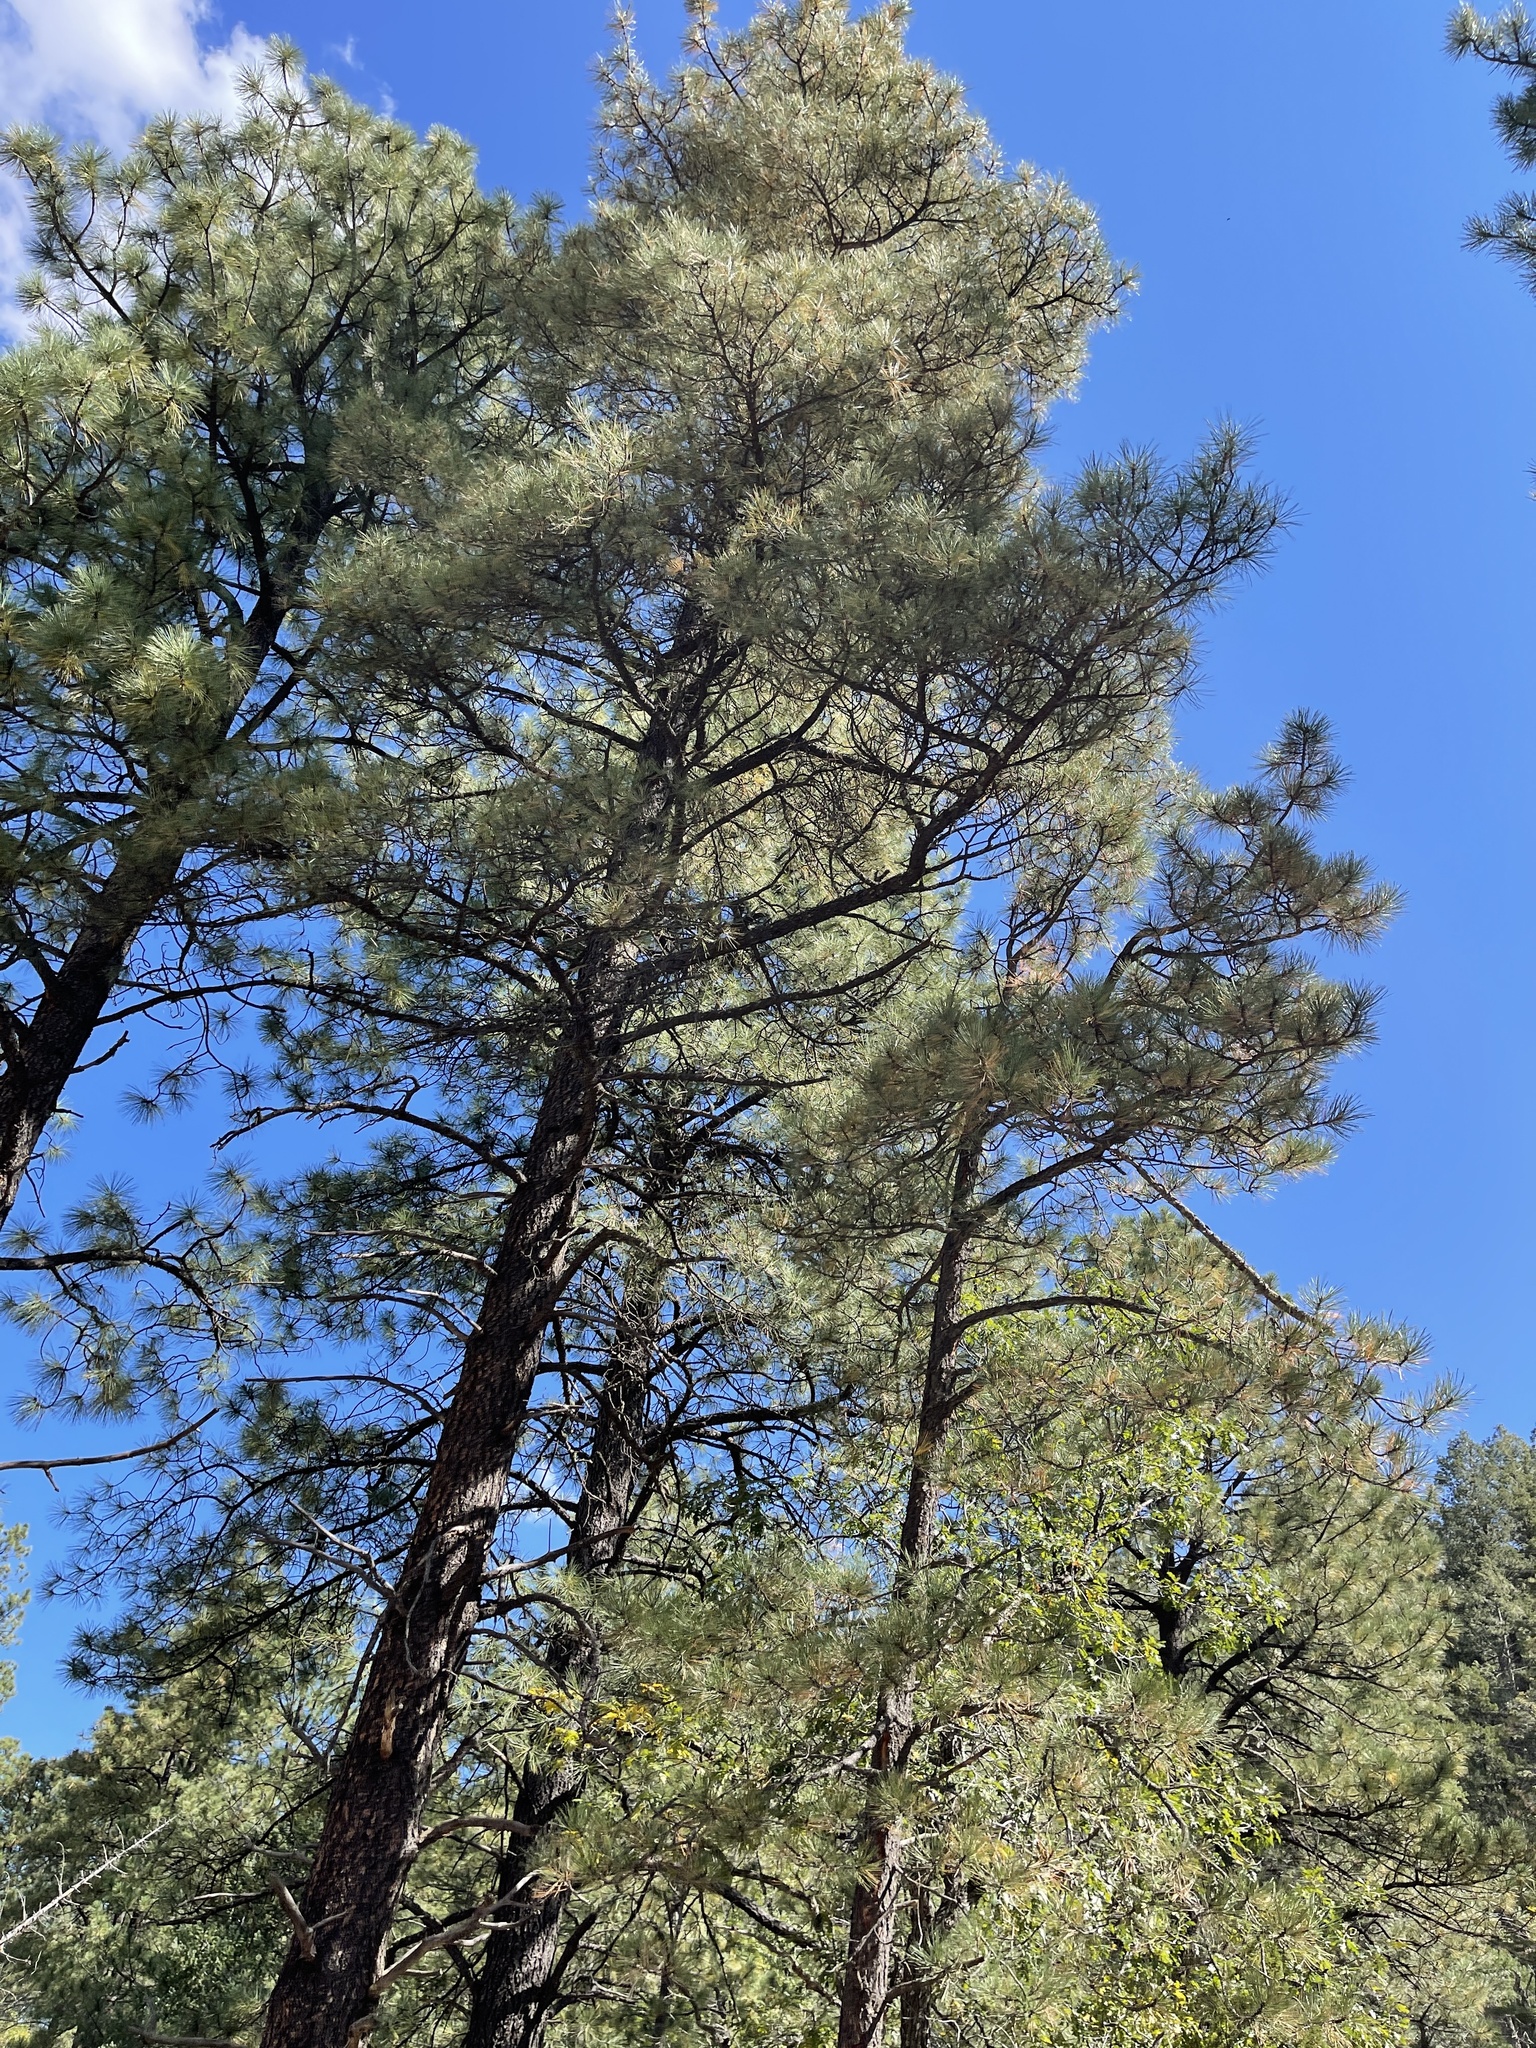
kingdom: Plantae
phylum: Tracheophyta
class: Pinopsida
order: Pinales
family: Pinaceae
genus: Pinus
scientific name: Pinus ponderosa
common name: Western yellow-pine
